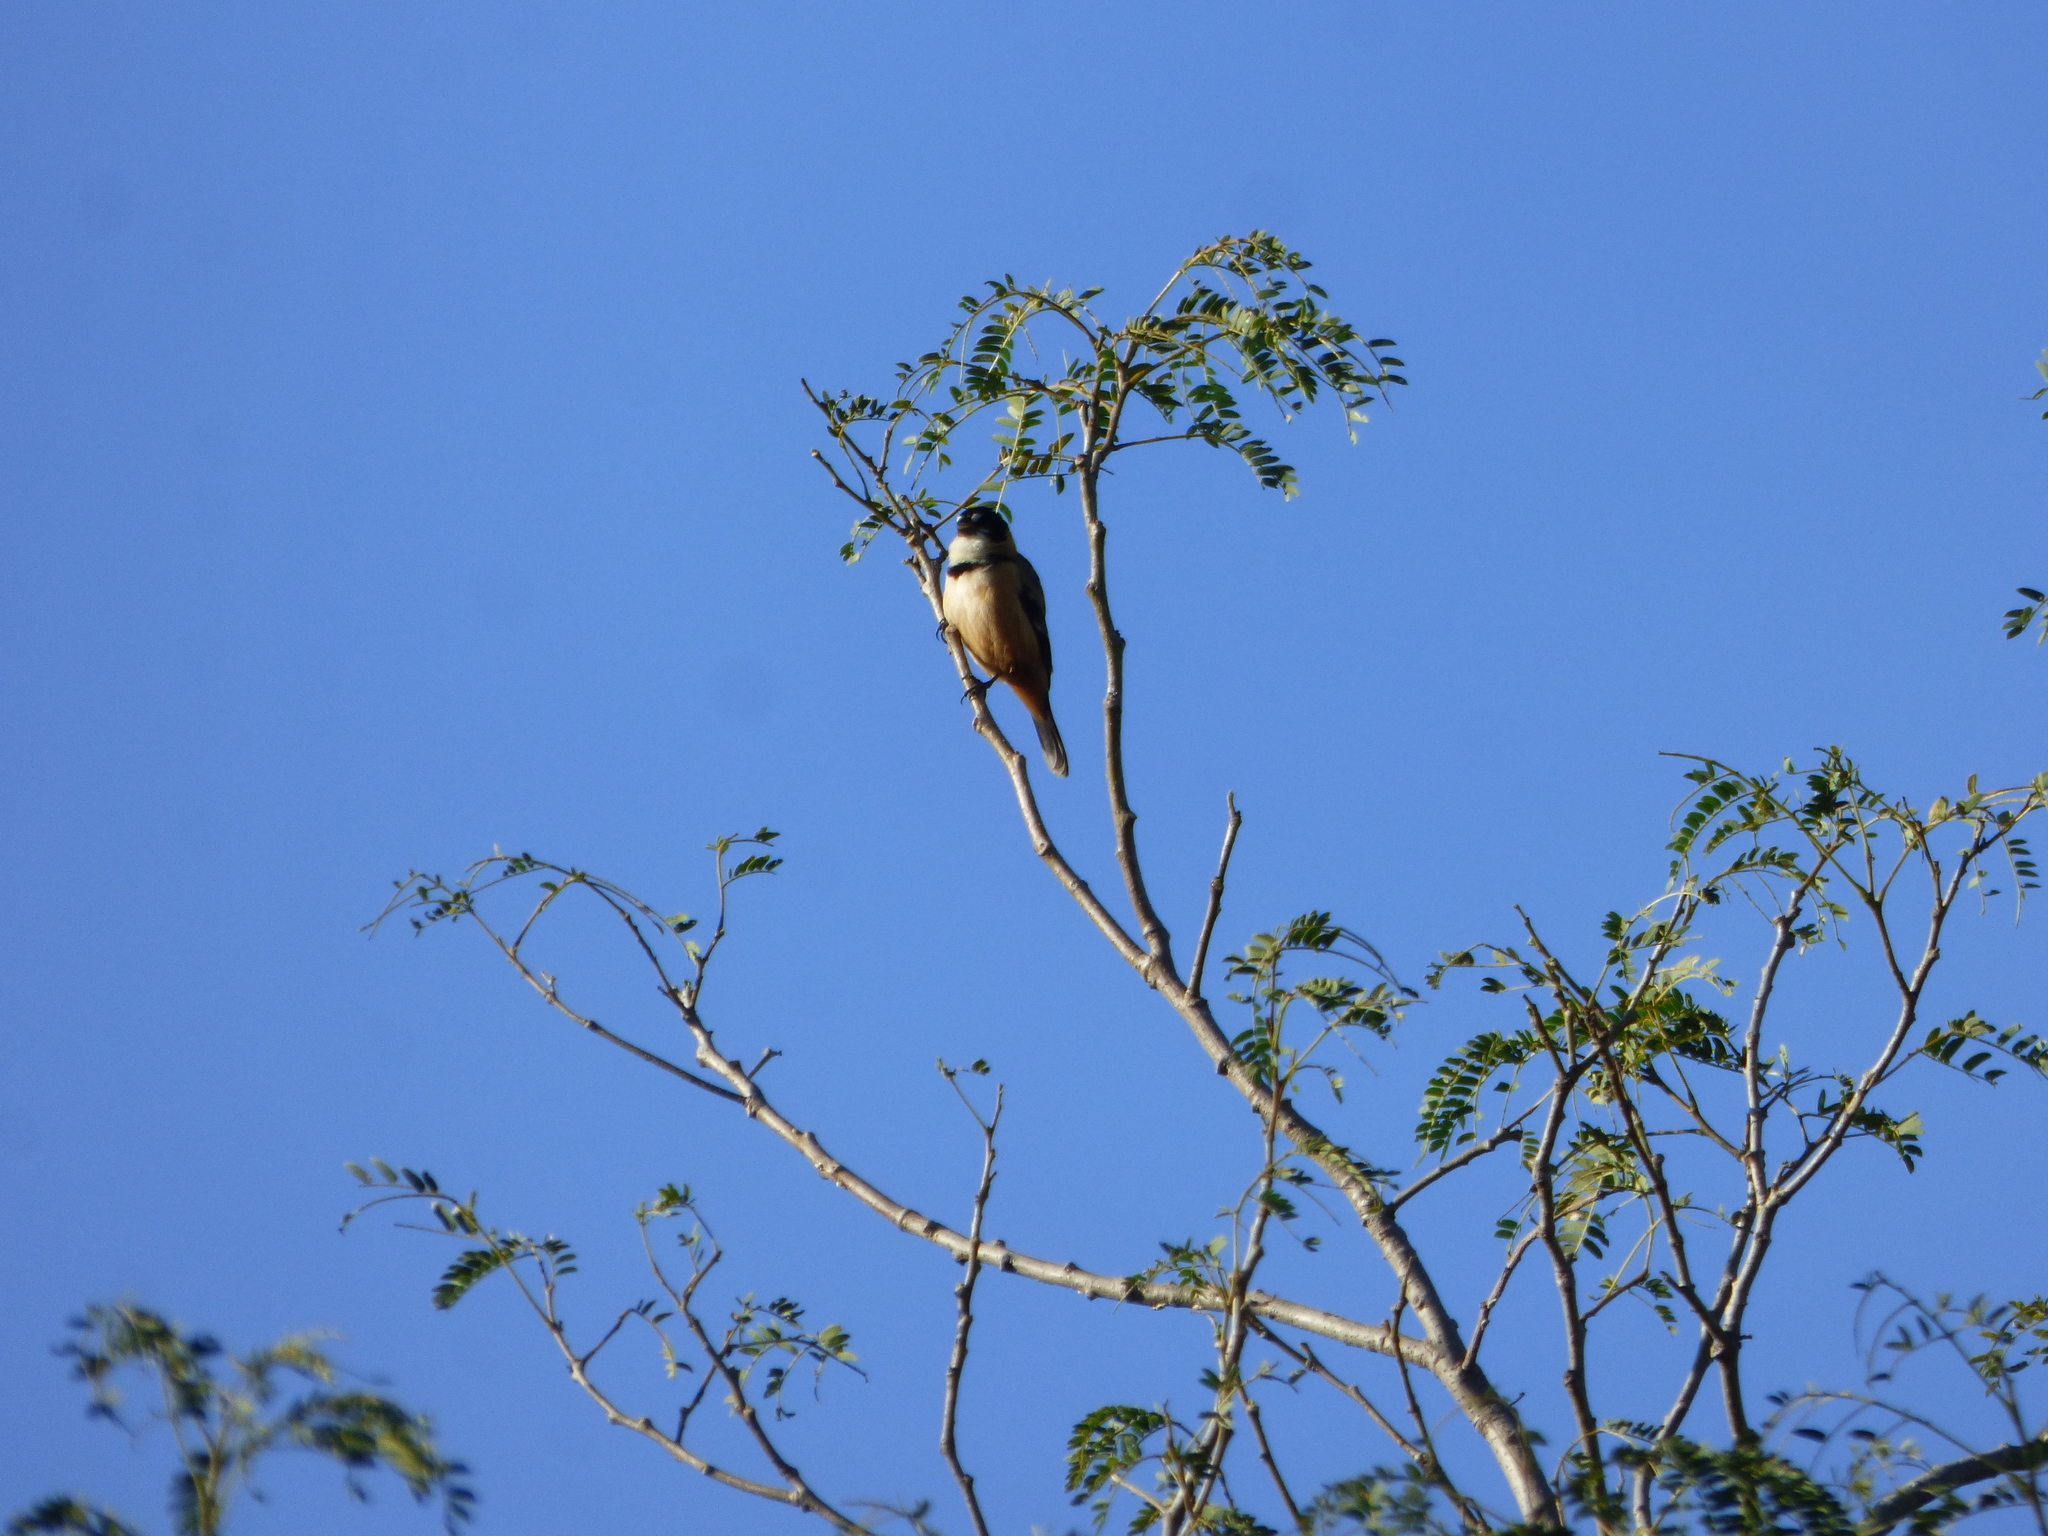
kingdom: Animalia
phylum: Chordata
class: Aves
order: Passeriformes
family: Thraupidae
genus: Sporophila
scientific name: Sporophila collaris
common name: Rusty-collared seedeater
